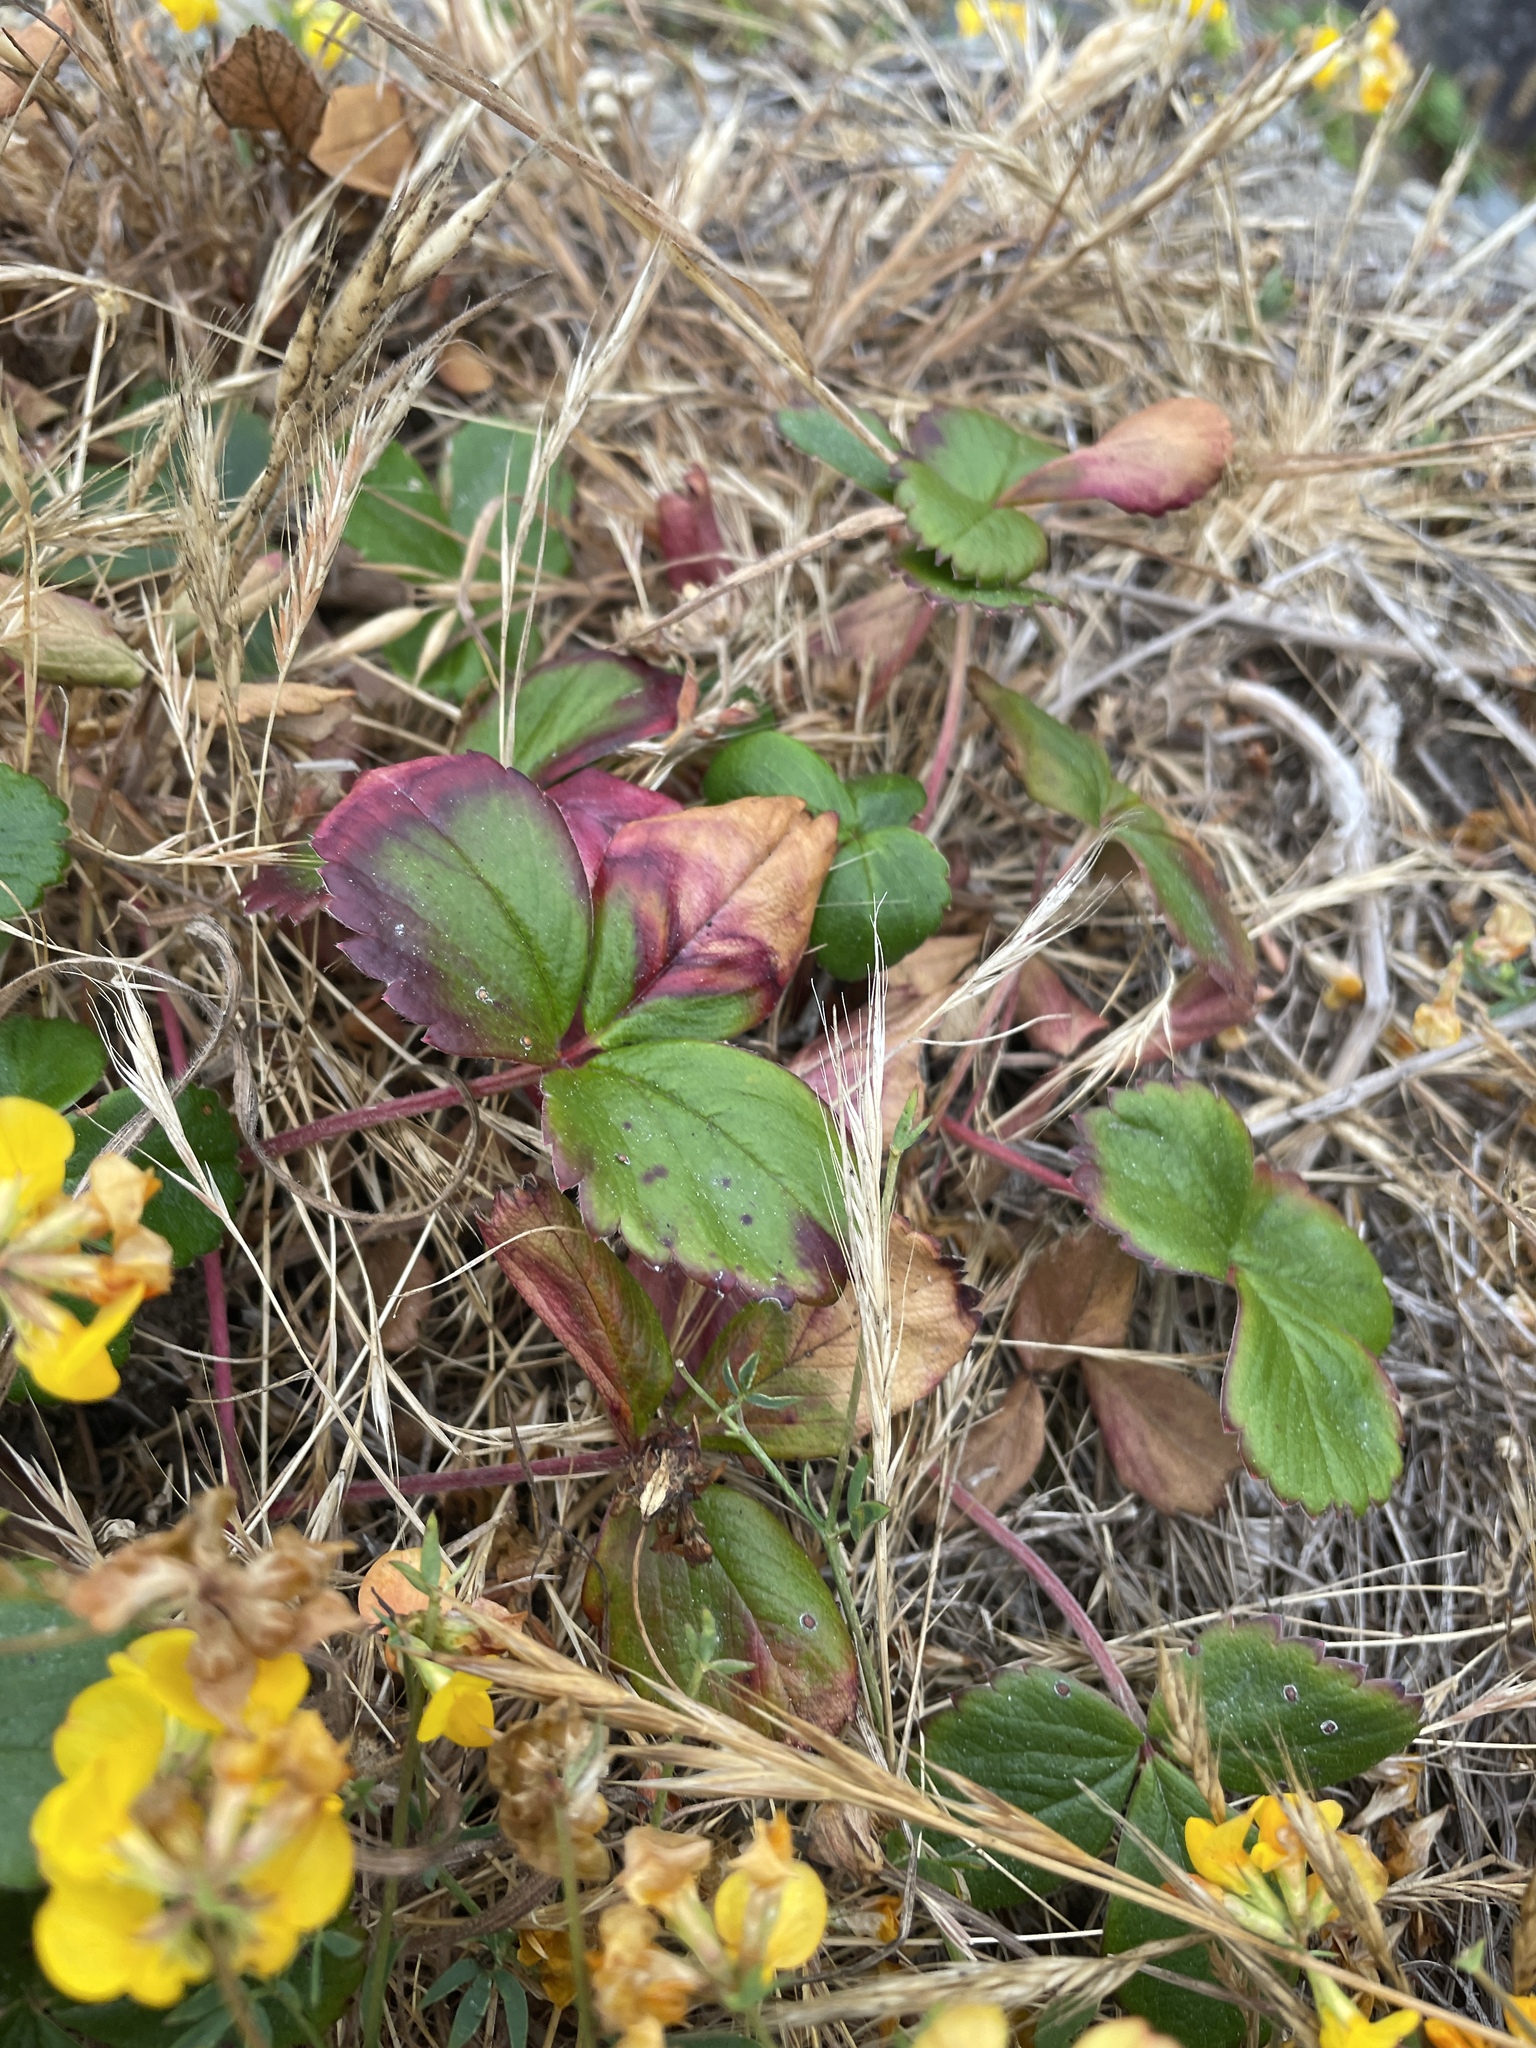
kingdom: Plantae
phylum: Tracheophyta
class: Magnoliopsida
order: Rosales
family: Rosaceae
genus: Fragaria
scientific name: Fragaria chiloensis
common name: Beach strawberry
